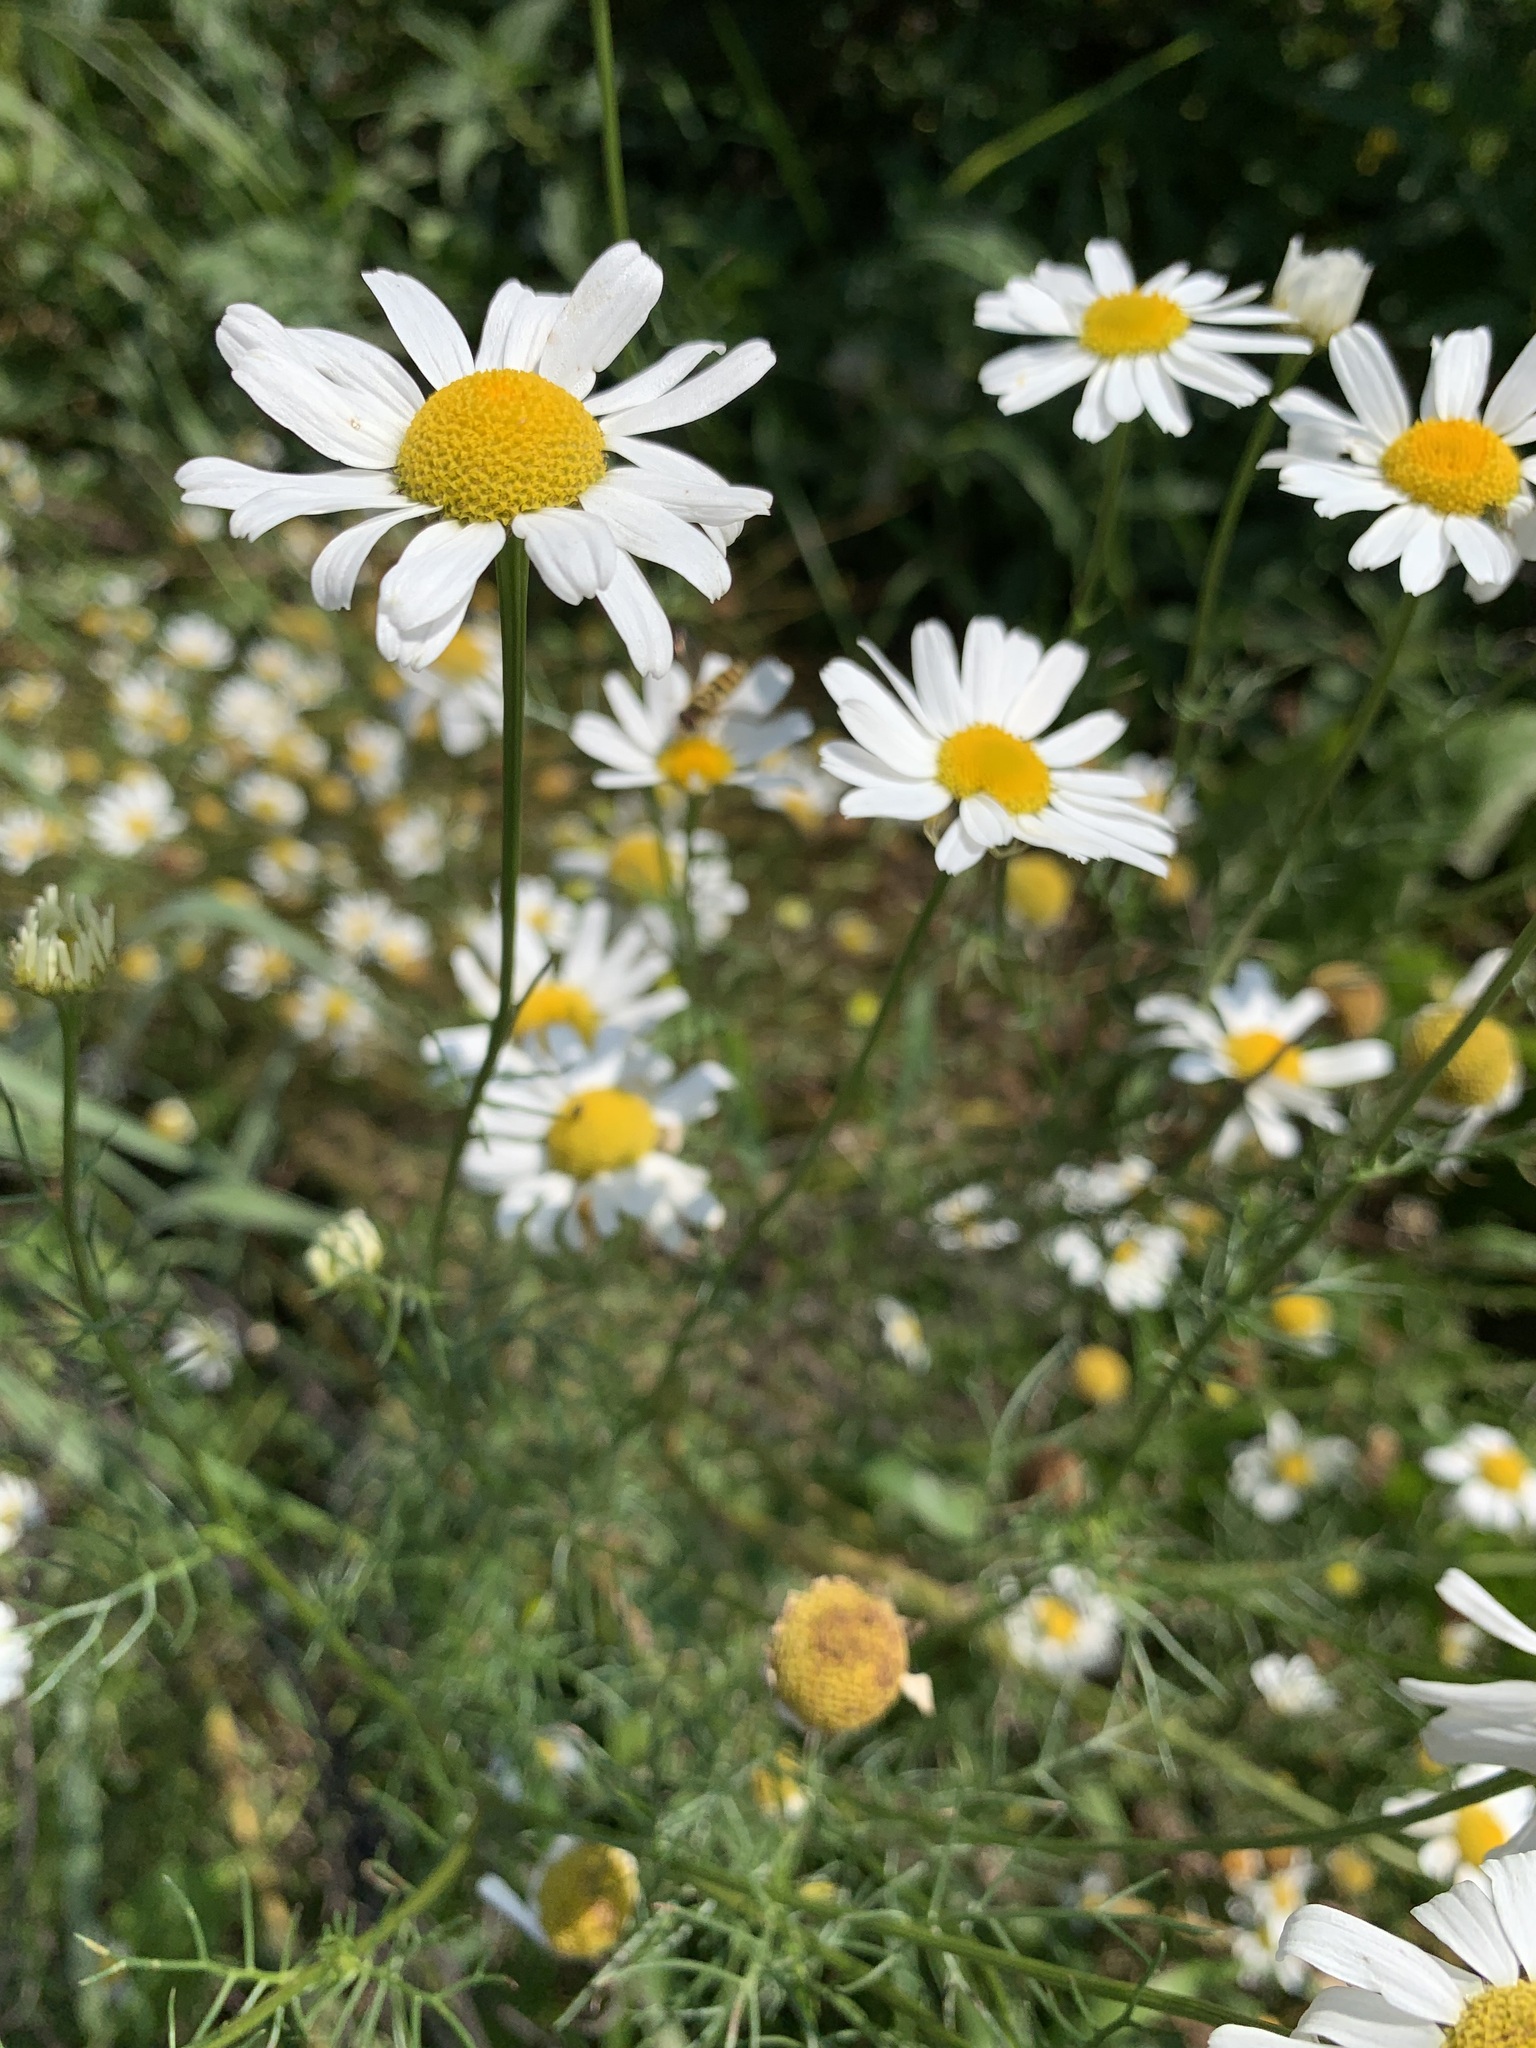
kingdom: Plantae
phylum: Tracheophyta
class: Magnoliopsida
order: Asterales
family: Asteraceae
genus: Tripleurospermum
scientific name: Tripleurospermum inodorum
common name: Scentless mayweed
